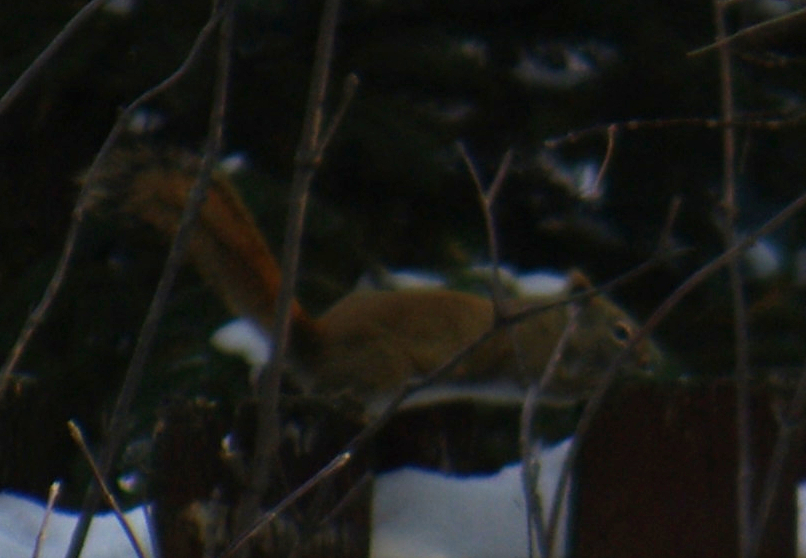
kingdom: Animalia
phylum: Chordata
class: Mammalia
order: Rodentia
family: Sciuridae
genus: Tamiasciurus
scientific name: Tamiasciurus hudsonicus
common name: Red squirrel
